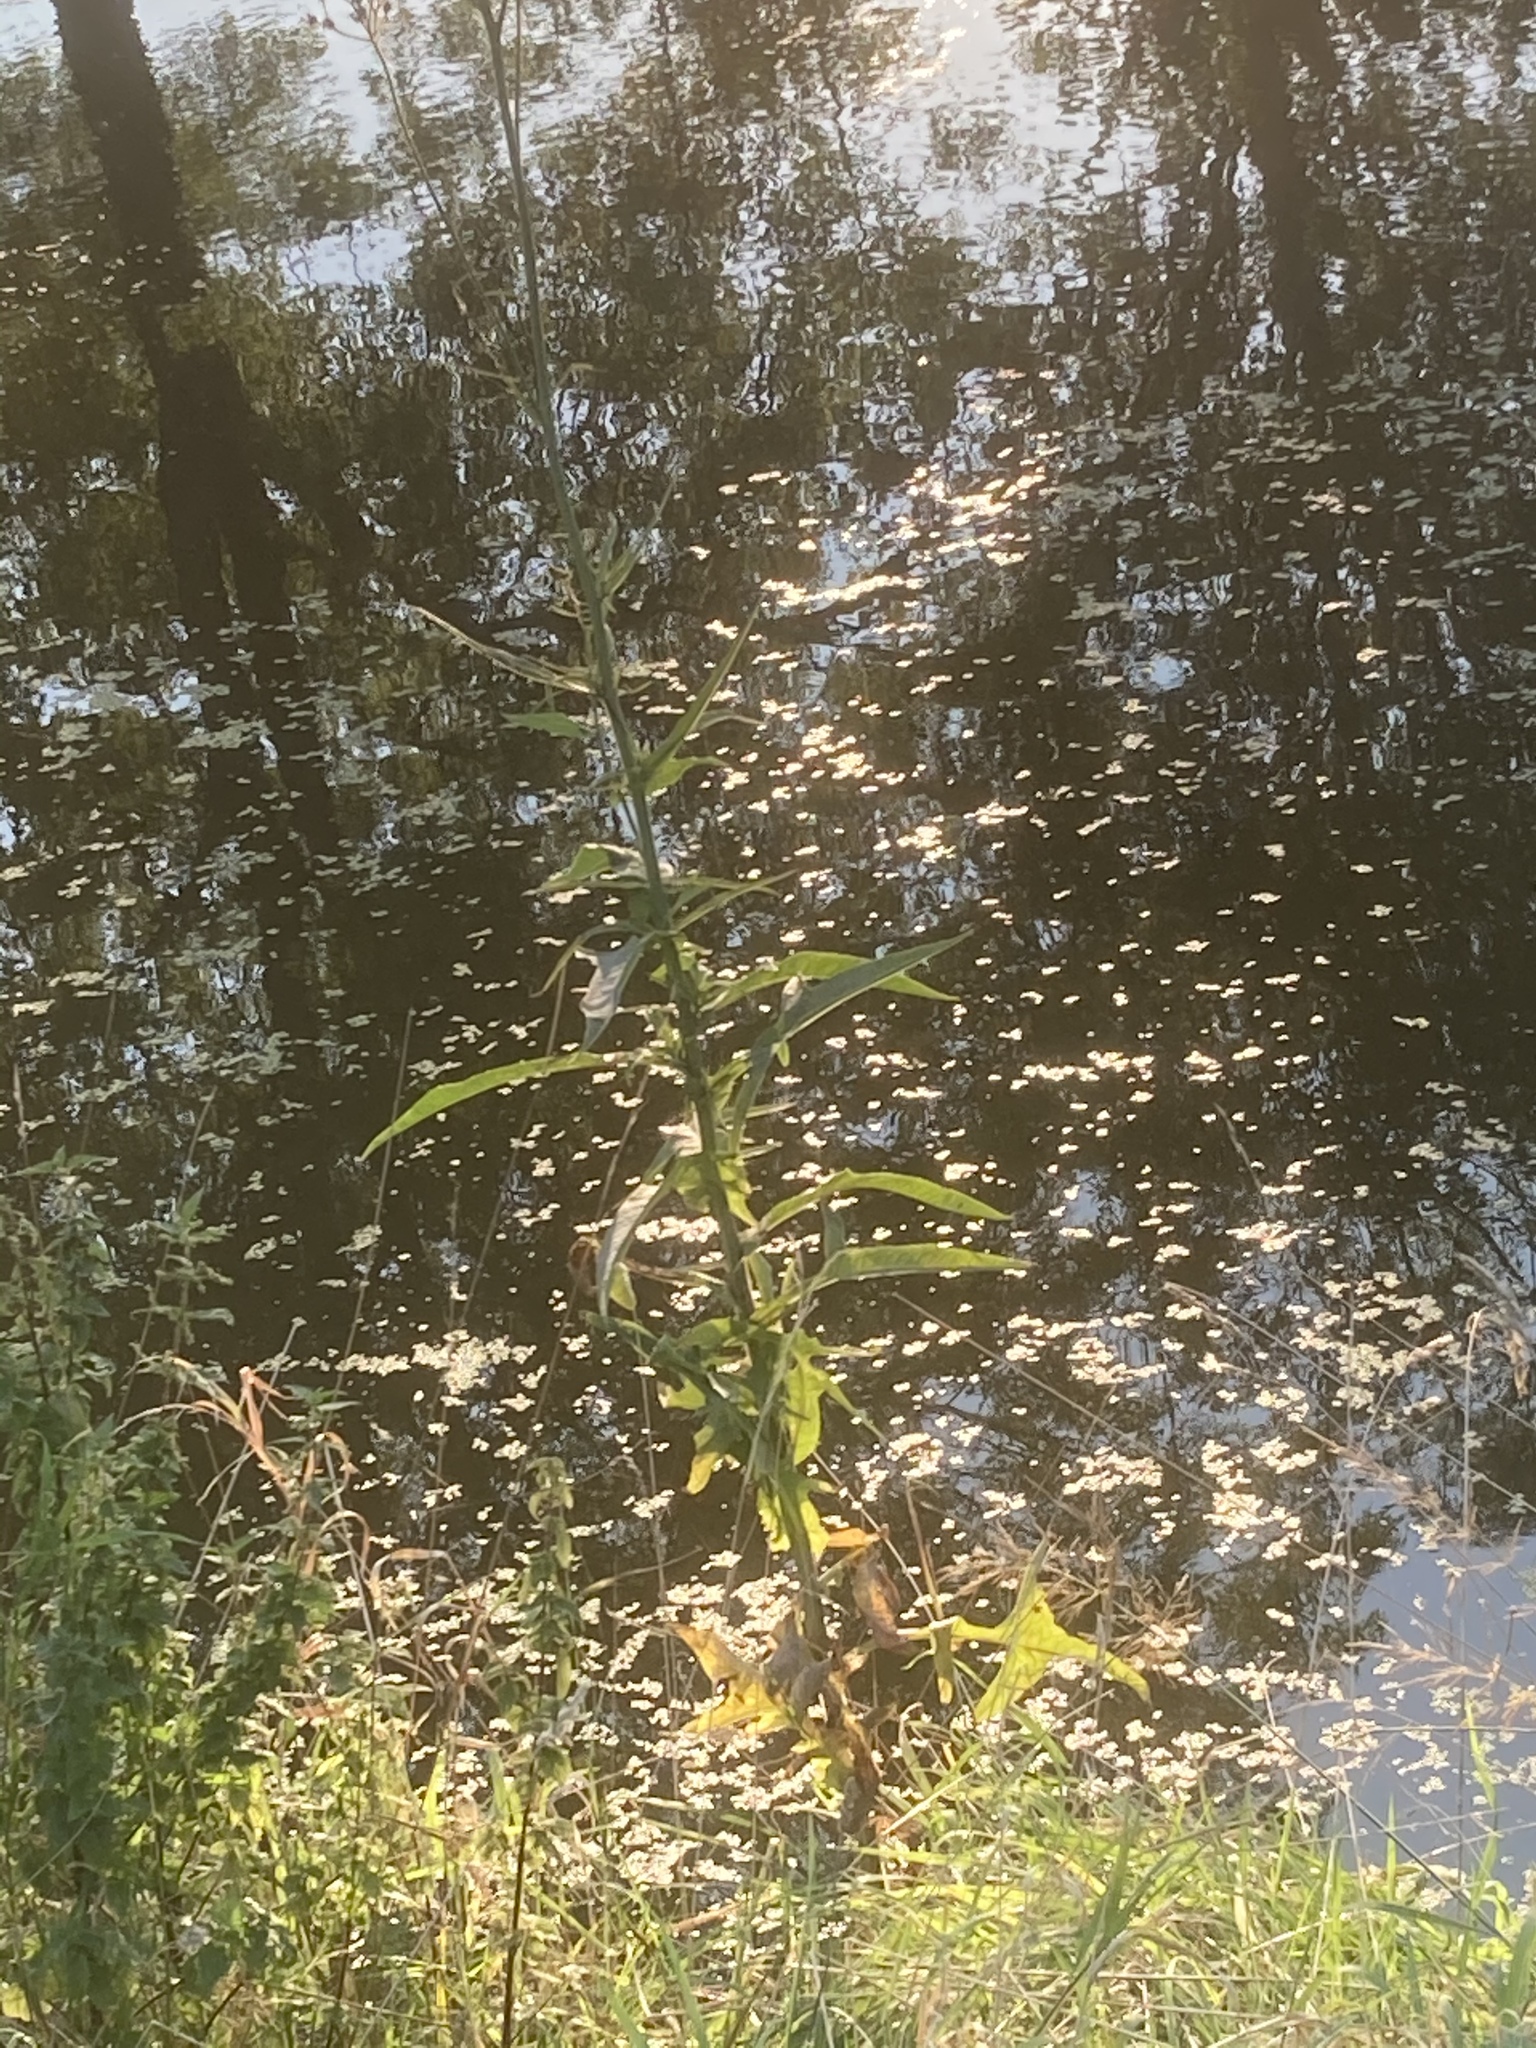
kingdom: Plantae
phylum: Tracheophyta
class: Magnoliopsida
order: Asterales
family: Asteraceae
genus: Sonchus
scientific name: Sonchus palustris
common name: Marsh sow-thistle
